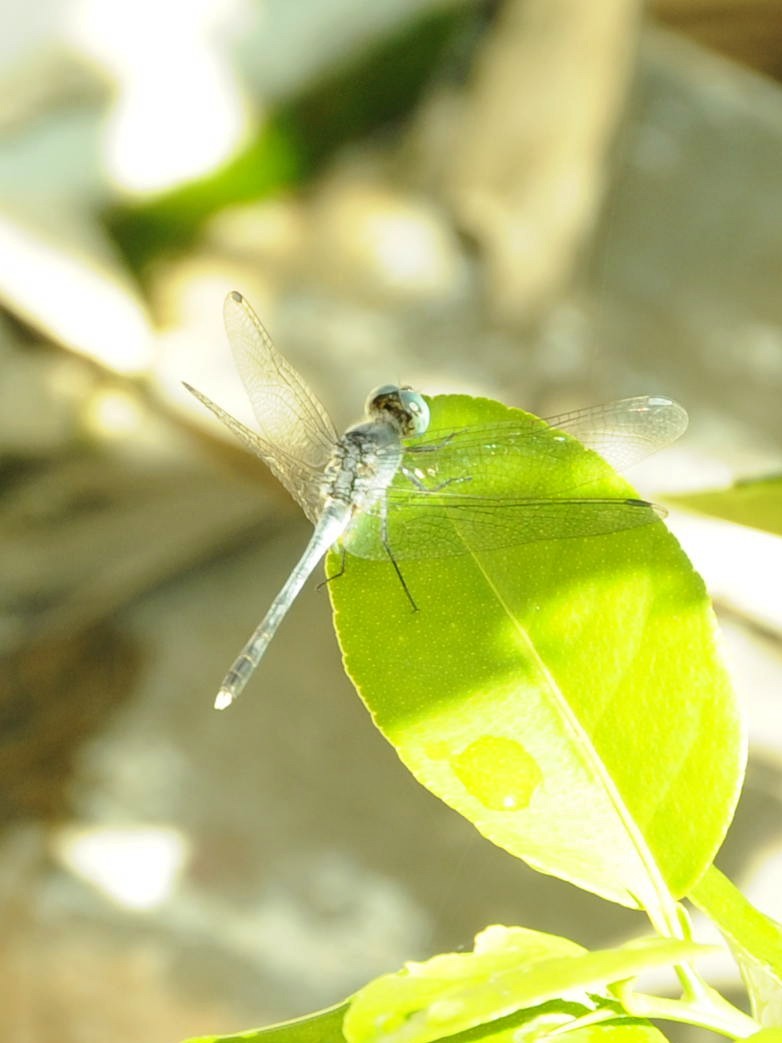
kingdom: Animalia
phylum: Arthropoda
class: Insecta
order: Odonata
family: Libellulidae
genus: Diplacodes
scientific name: Diplacodes trivialis
